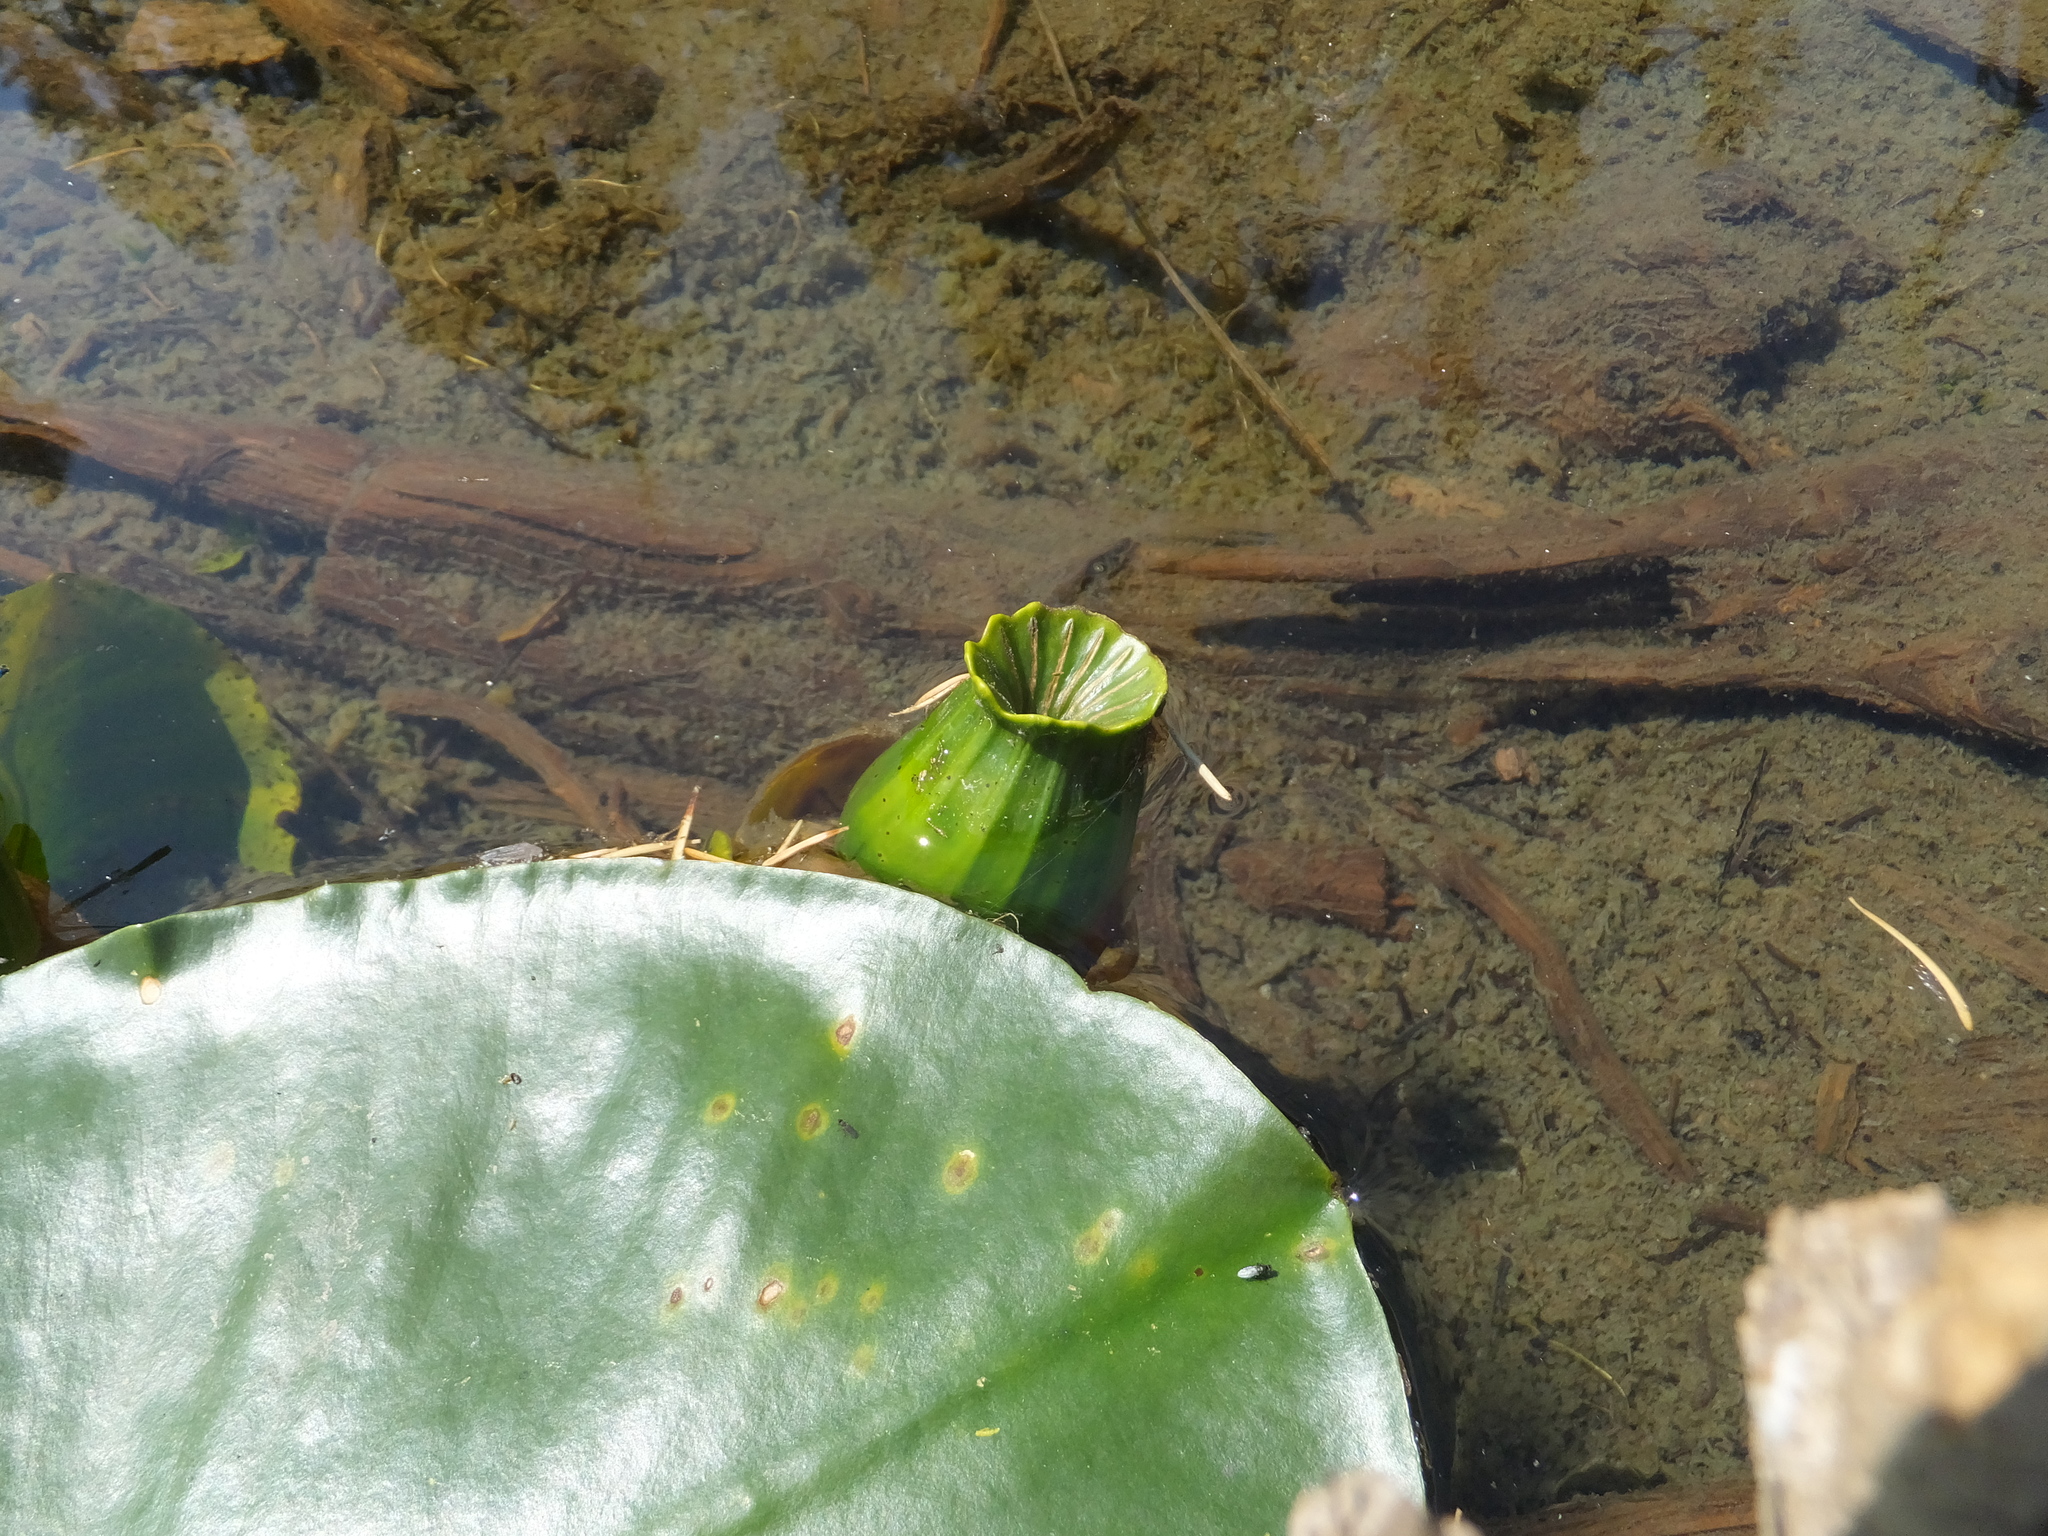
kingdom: Plantae
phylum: Tracheophyta
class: Magnoliopsida
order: Nymphaeales
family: Nymphaeaceae
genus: Nuphar
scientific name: Nuphar polysepala
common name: Rocky mountain cow-lily
